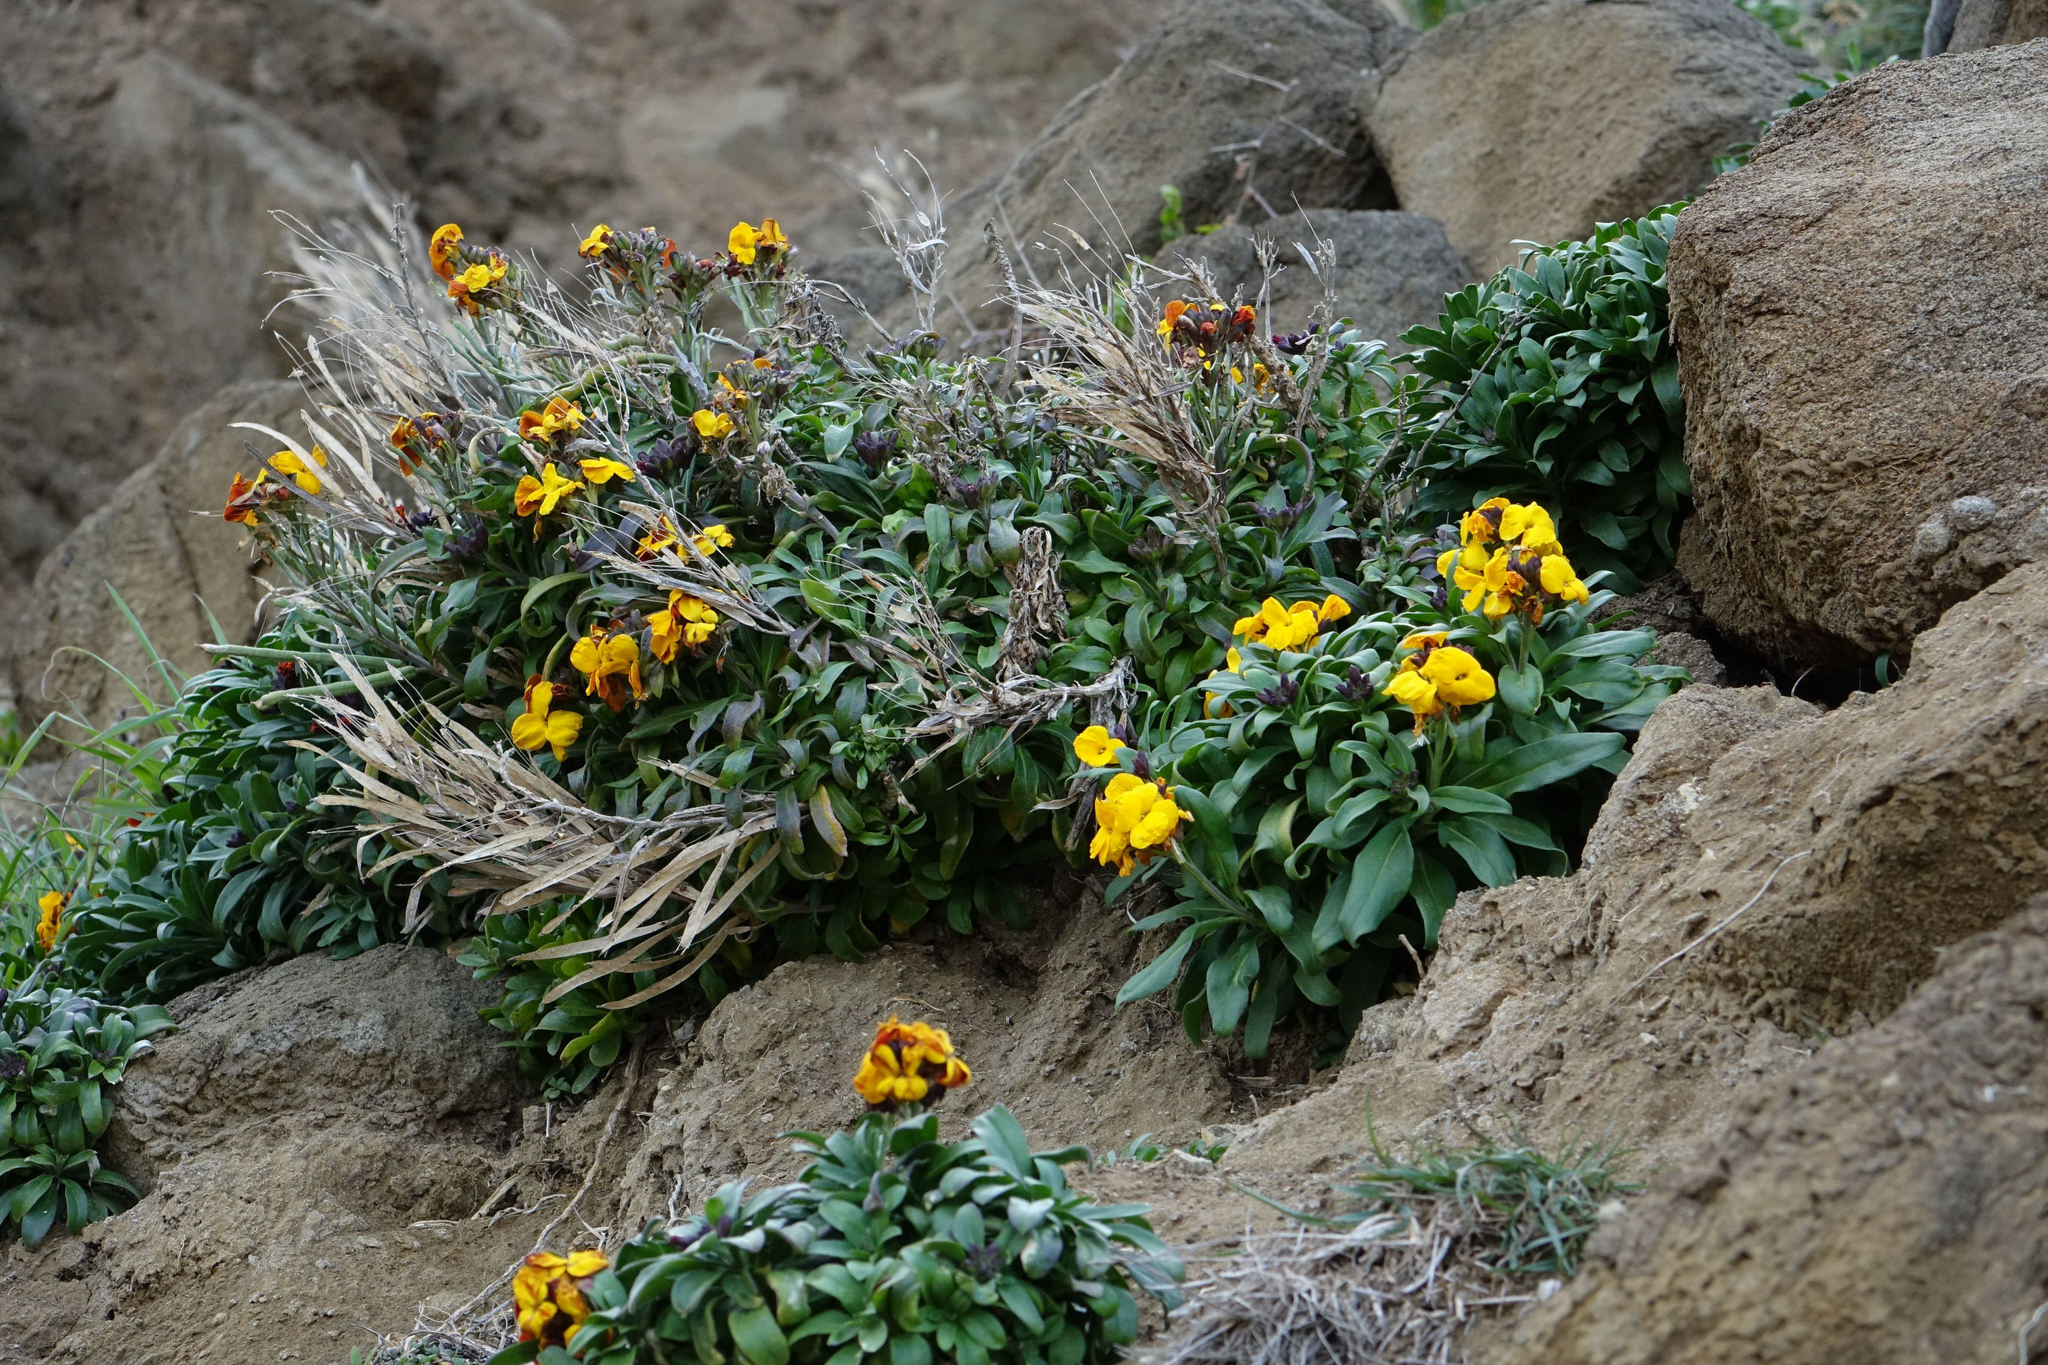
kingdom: Plantae
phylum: Tracheophyta
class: Magnoliopsida
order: Brassicales
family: Brassicaceae
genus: Erysimum
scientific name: Erysimum cheiri
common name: Wallflower
